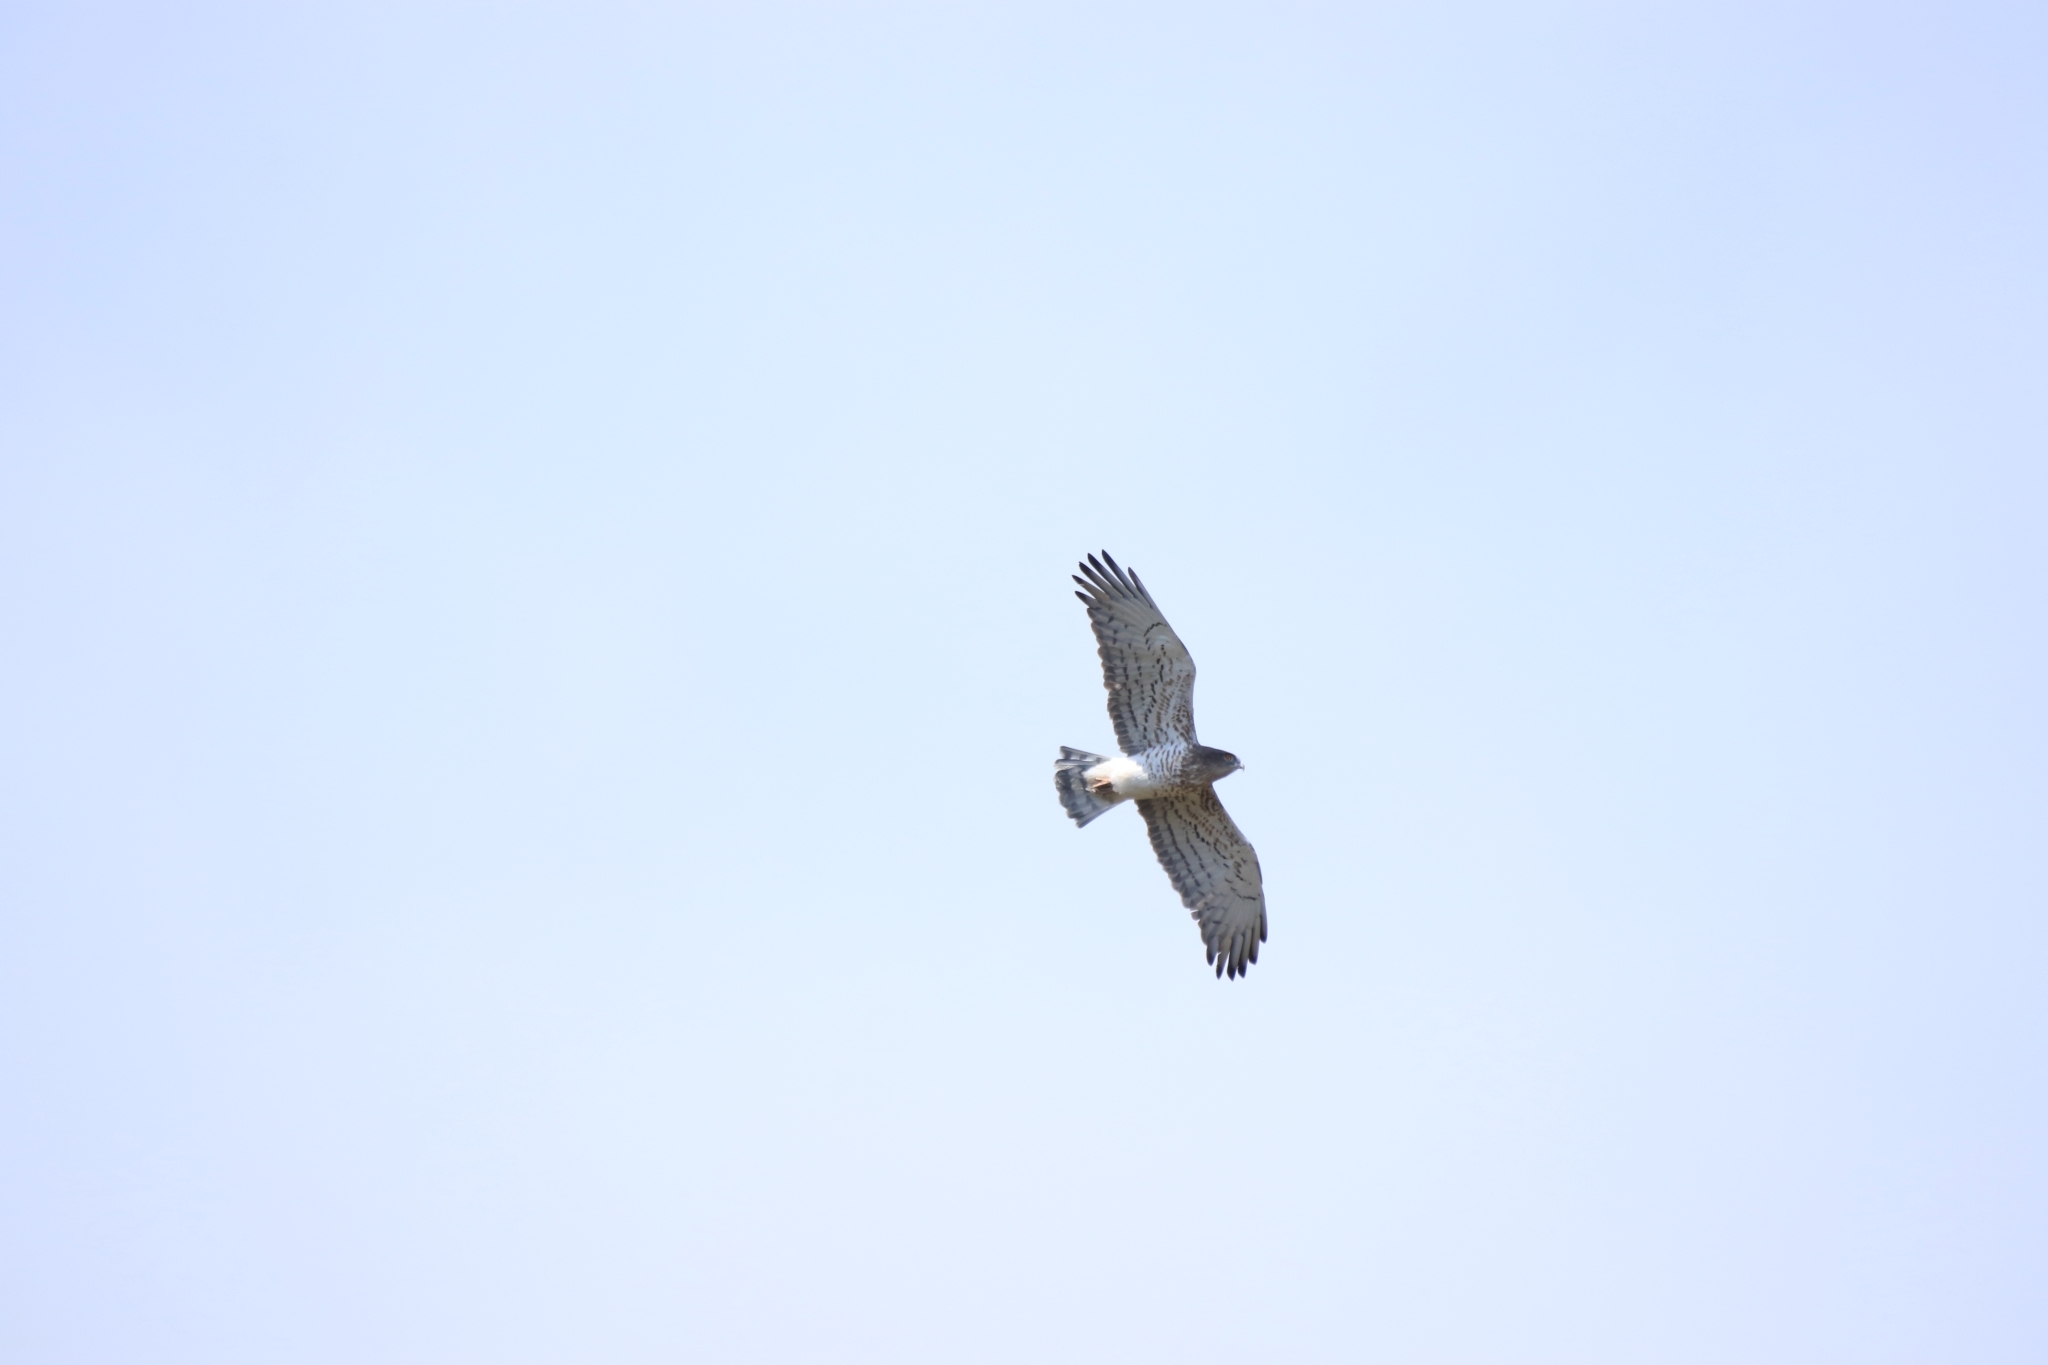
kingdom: Animalia
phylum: Chordata
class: Aves
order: Accipitriformes
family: Accipitridae
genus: Circaetus
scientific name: Circaetus gallicus
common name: Short-toed snake eagle
